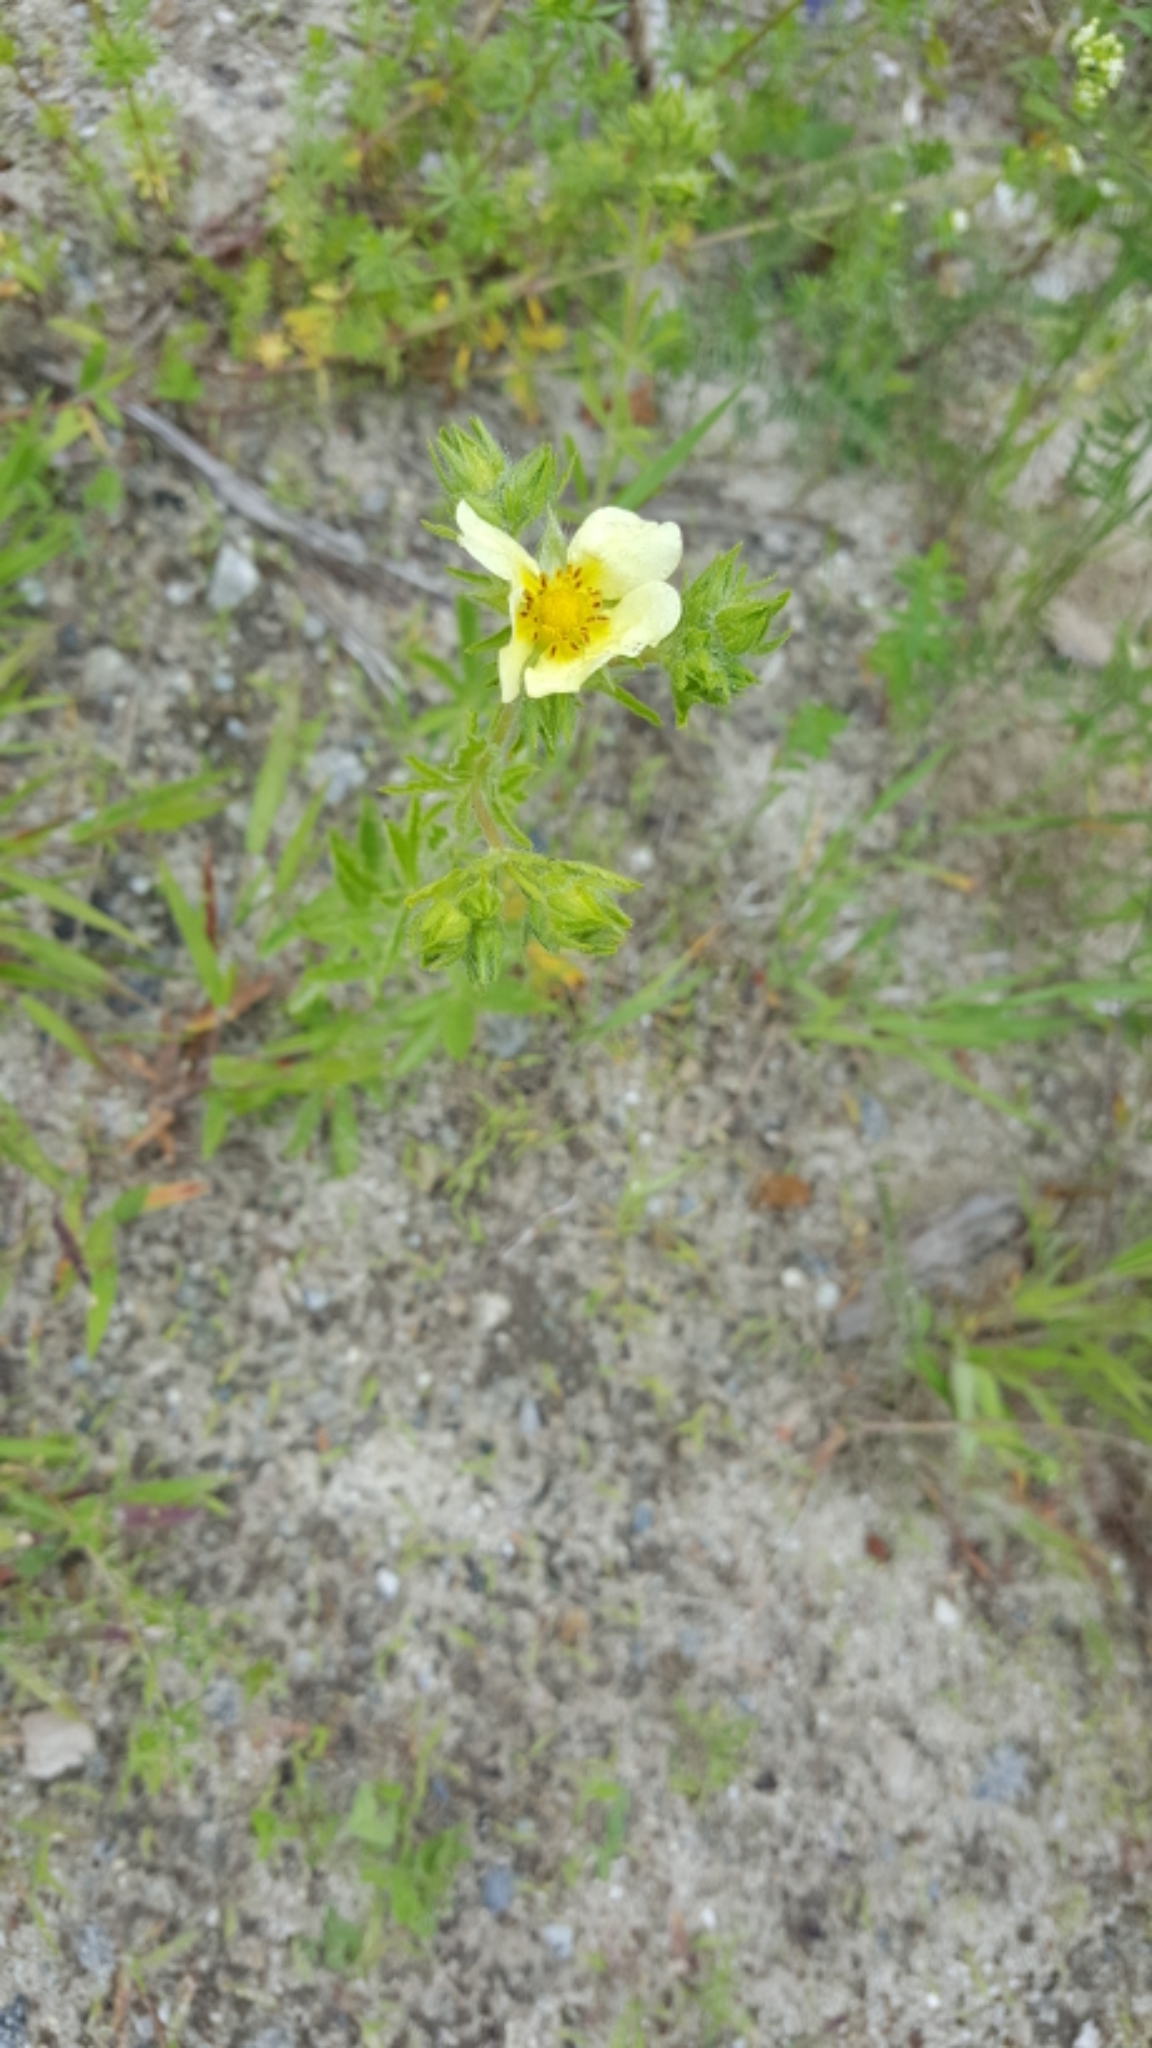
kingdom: Plantae
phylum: Tracheophyta
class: Magnoliopsida
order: Rosales
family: Rosaceae
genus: Potentilla
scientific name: Potentilla recta
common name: Sulphur cinquefoil
